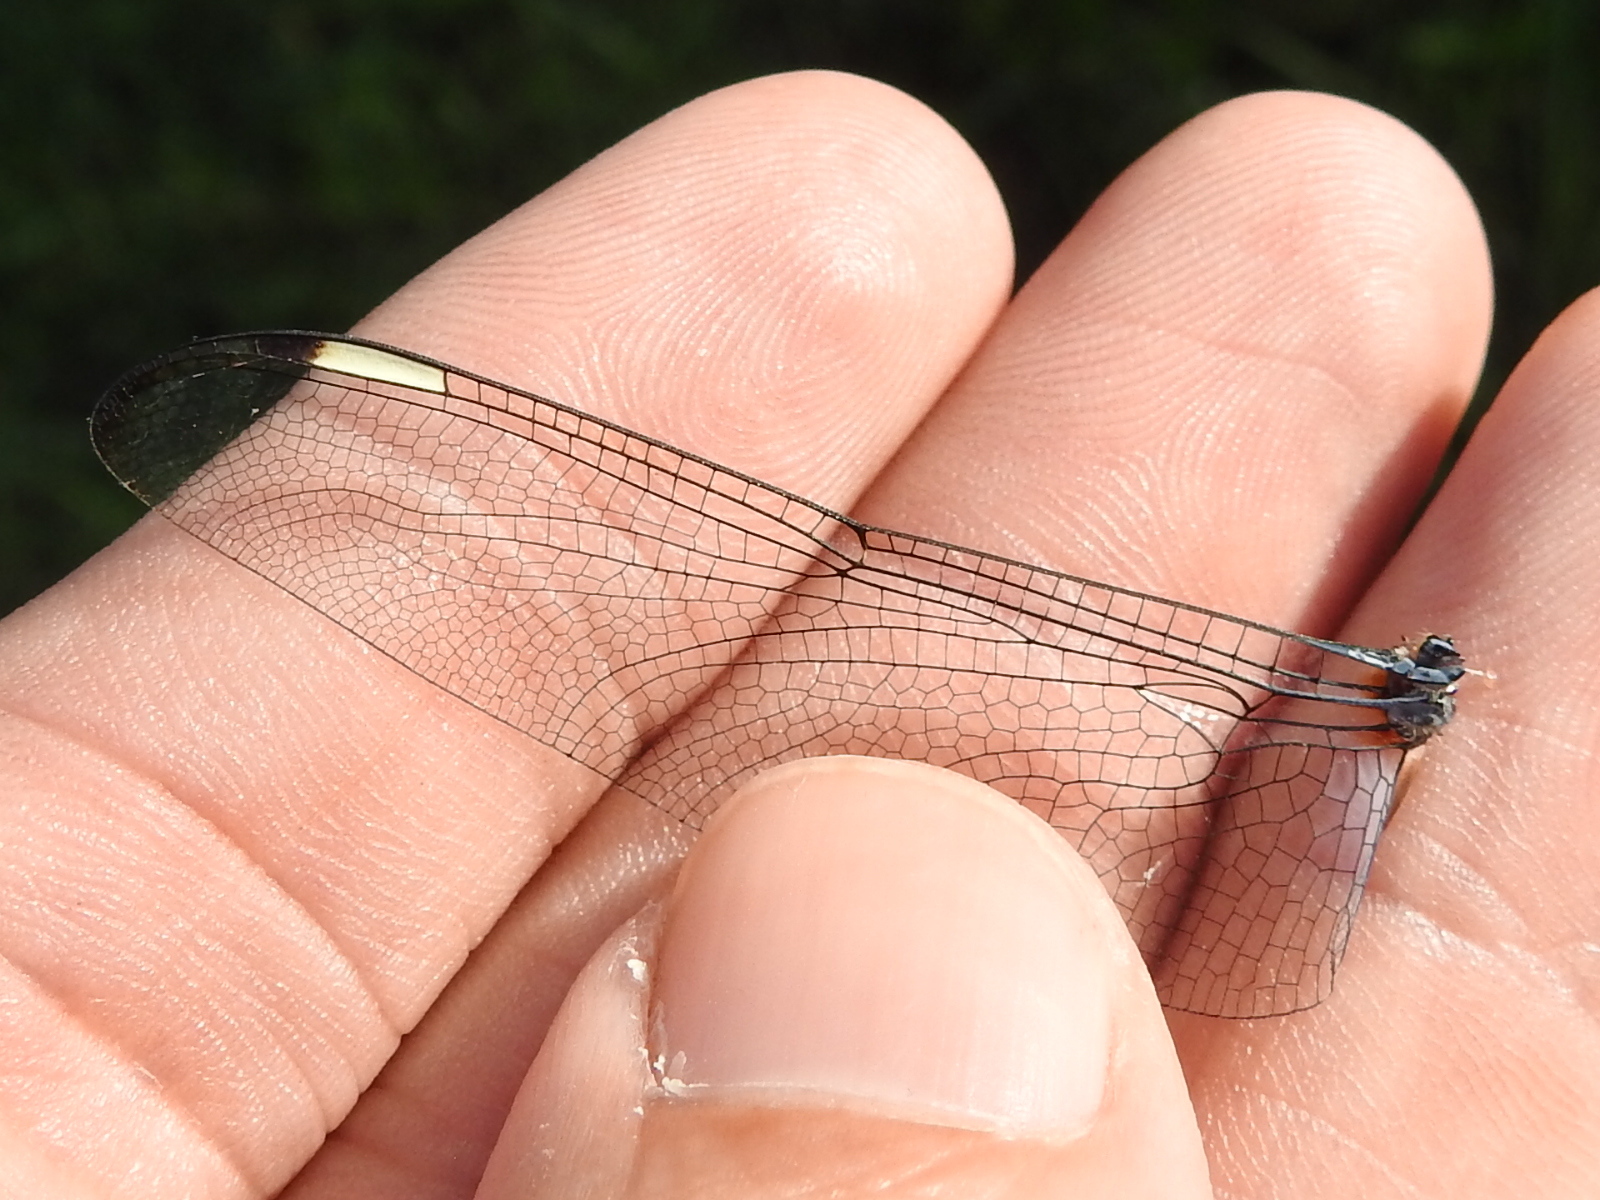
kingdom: Animalia
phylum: Arthropoda
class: Insecta
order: Odonata
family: Libellulidae
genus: Libellula
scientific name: Libellula comanche
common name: Comanche skimmer
